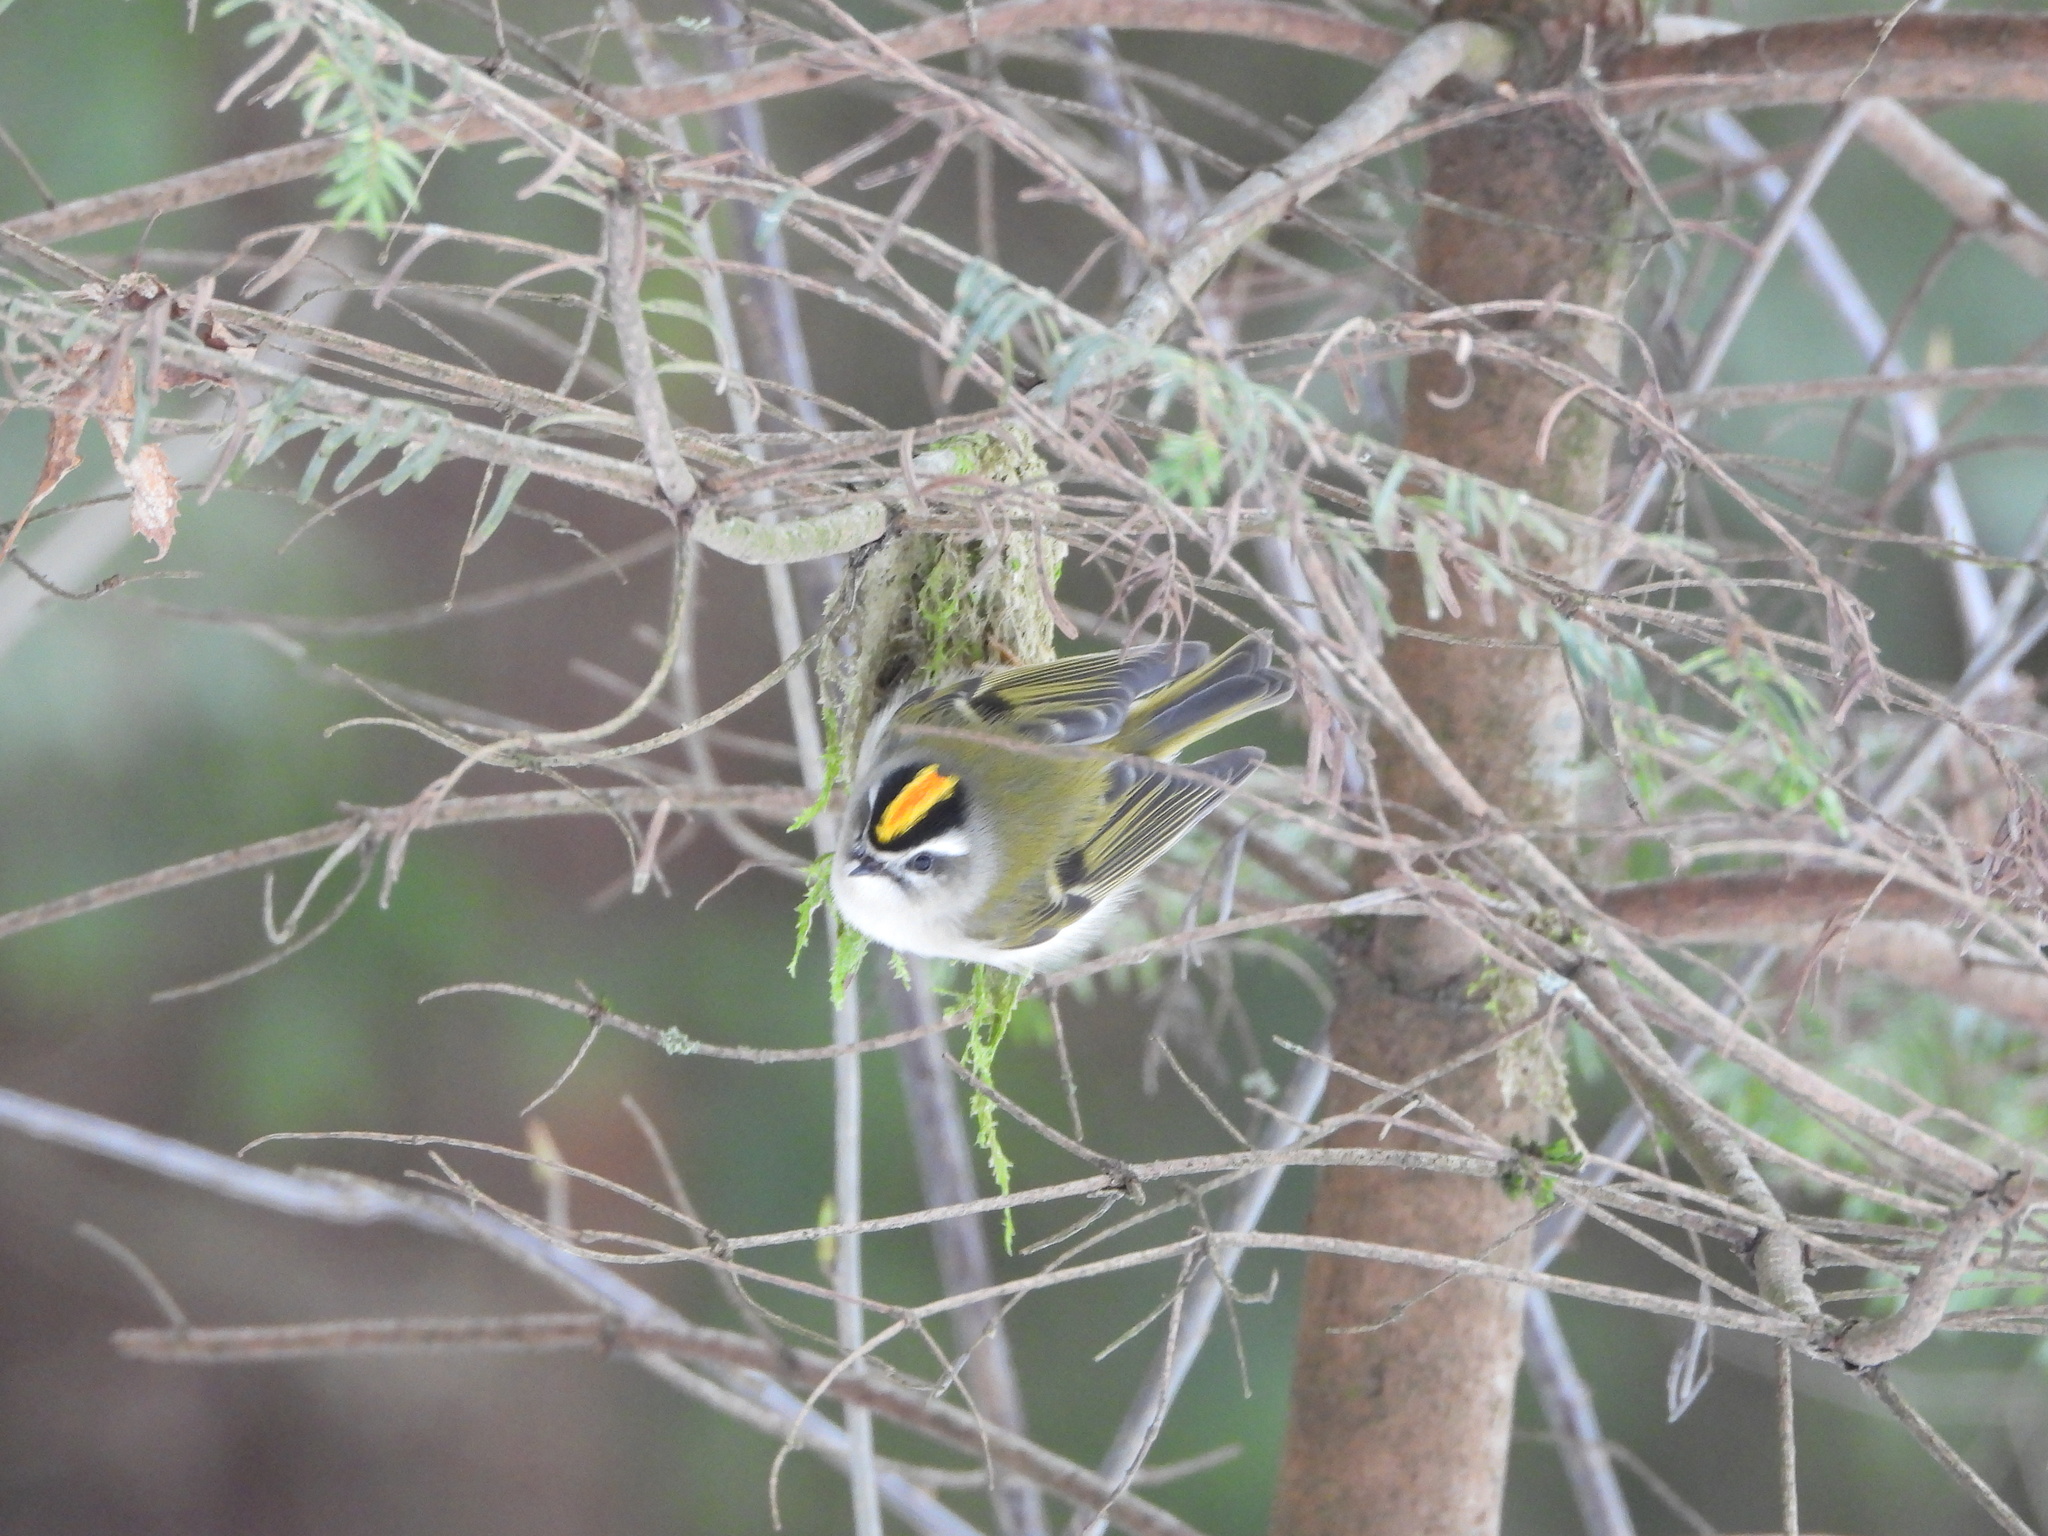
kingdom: Animalia
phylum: Chordata
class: Aves
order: Passeriformes
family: Regulidae
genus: Regulus
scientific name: Regulus satrapa
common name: Golden-crowned kinglet
